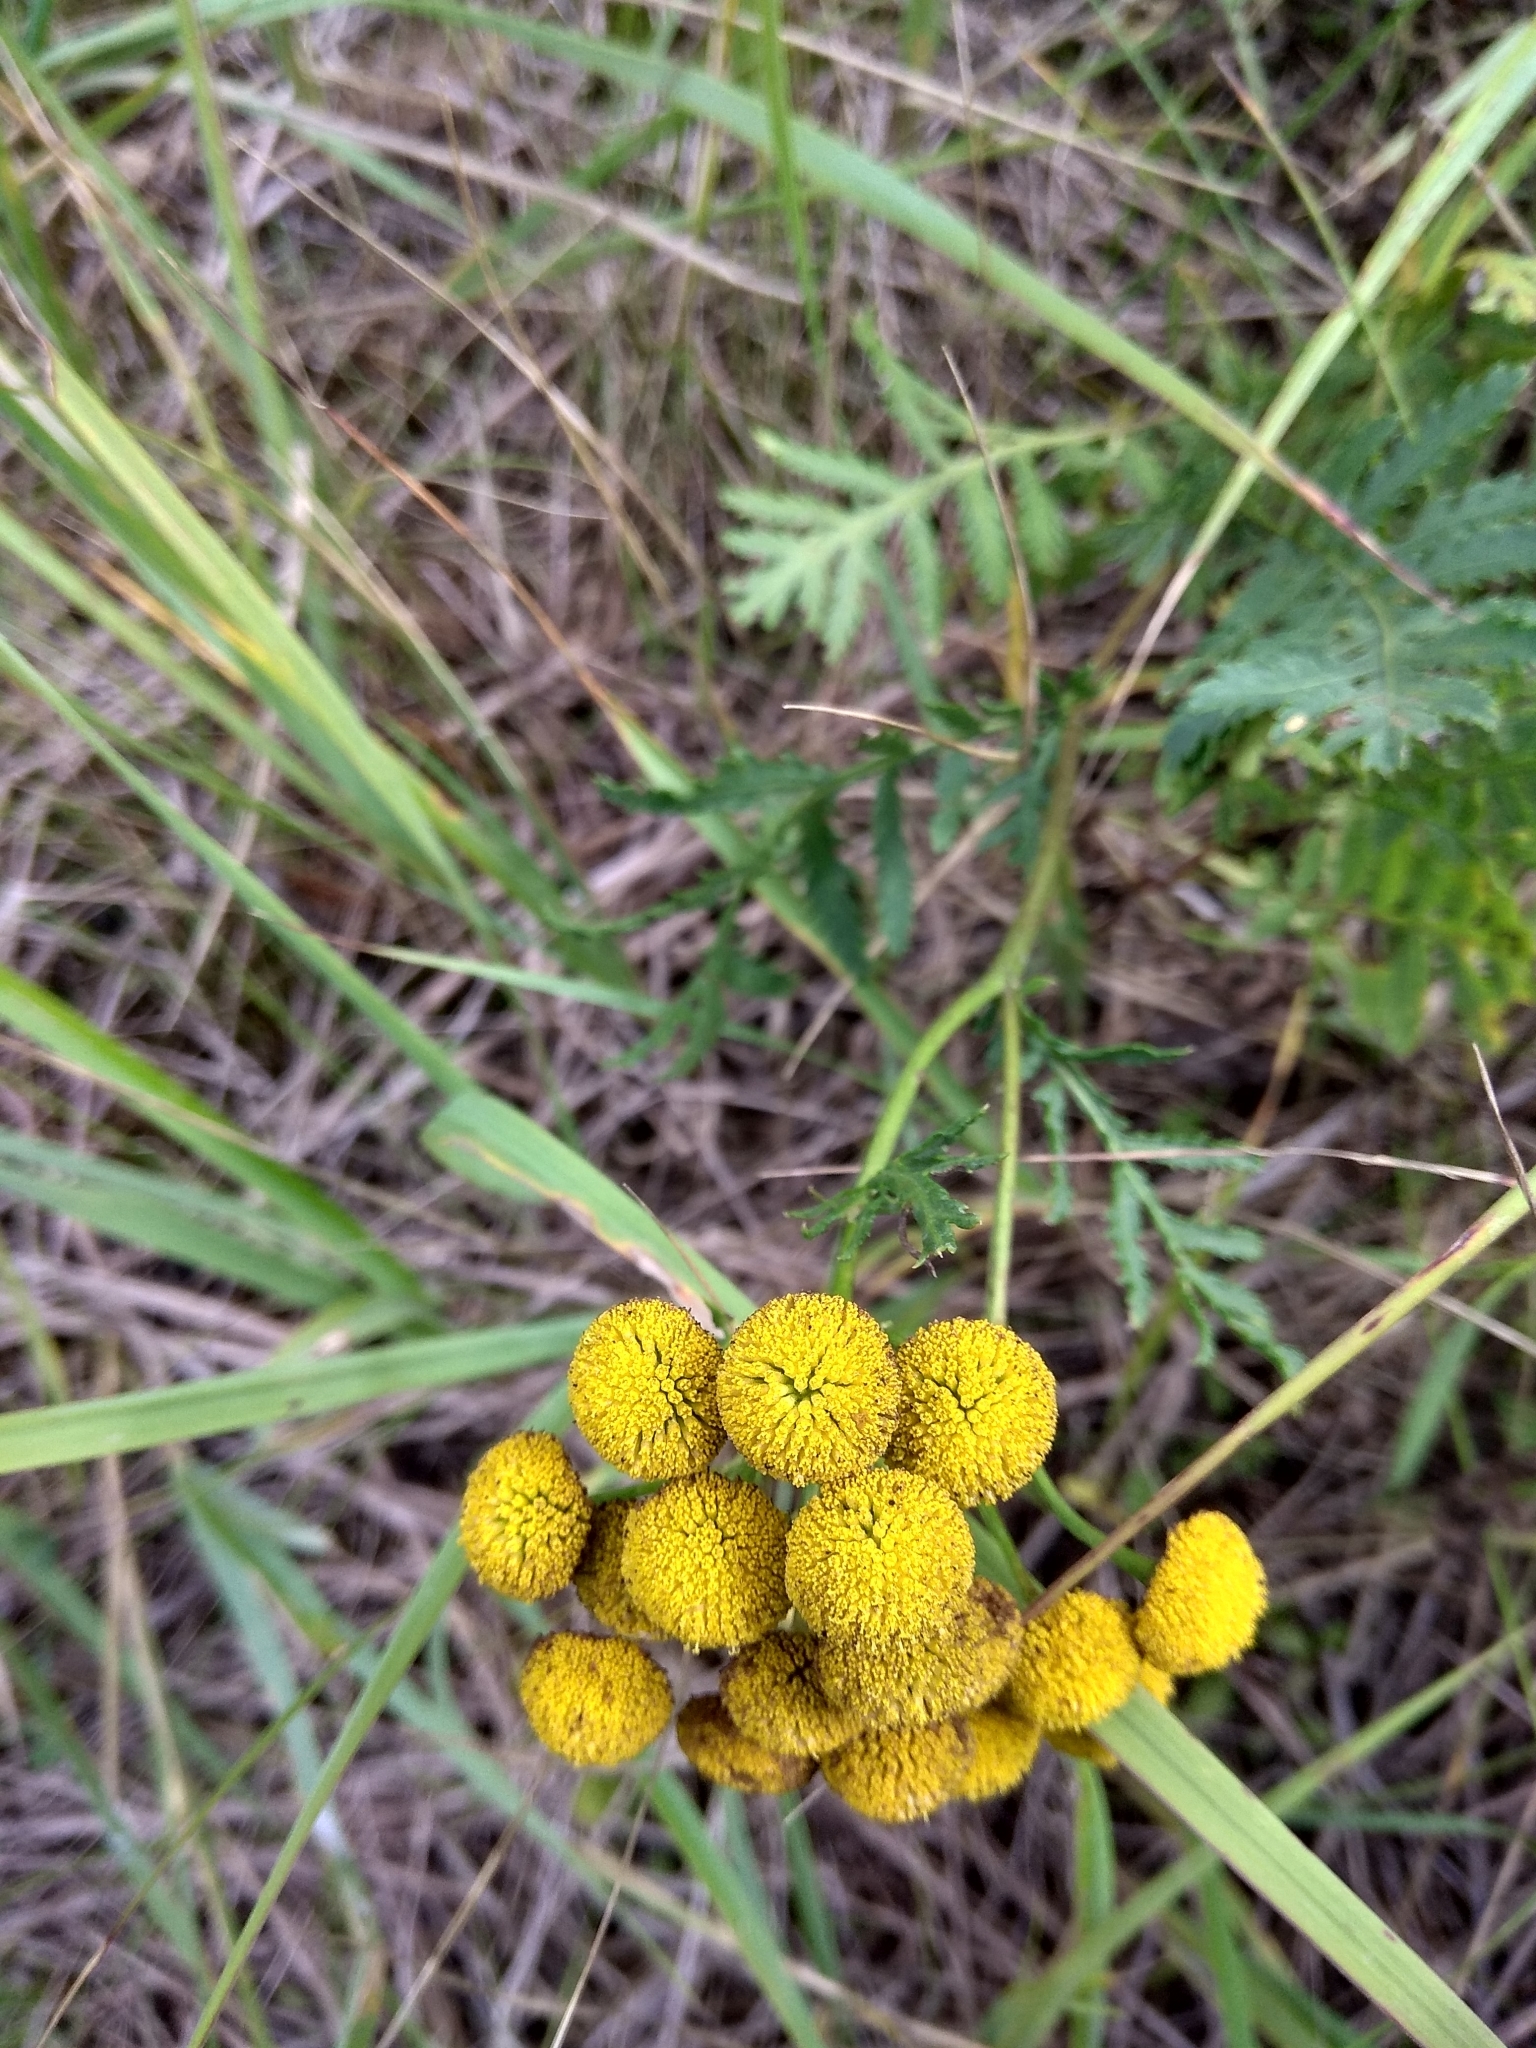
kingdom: Plantae
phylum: Tracheophyta
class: Magnoliopsida
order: Asterales
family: Asteraceae
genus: Tanacetum
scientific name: Tanacetum vulgare
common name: Common tansy
